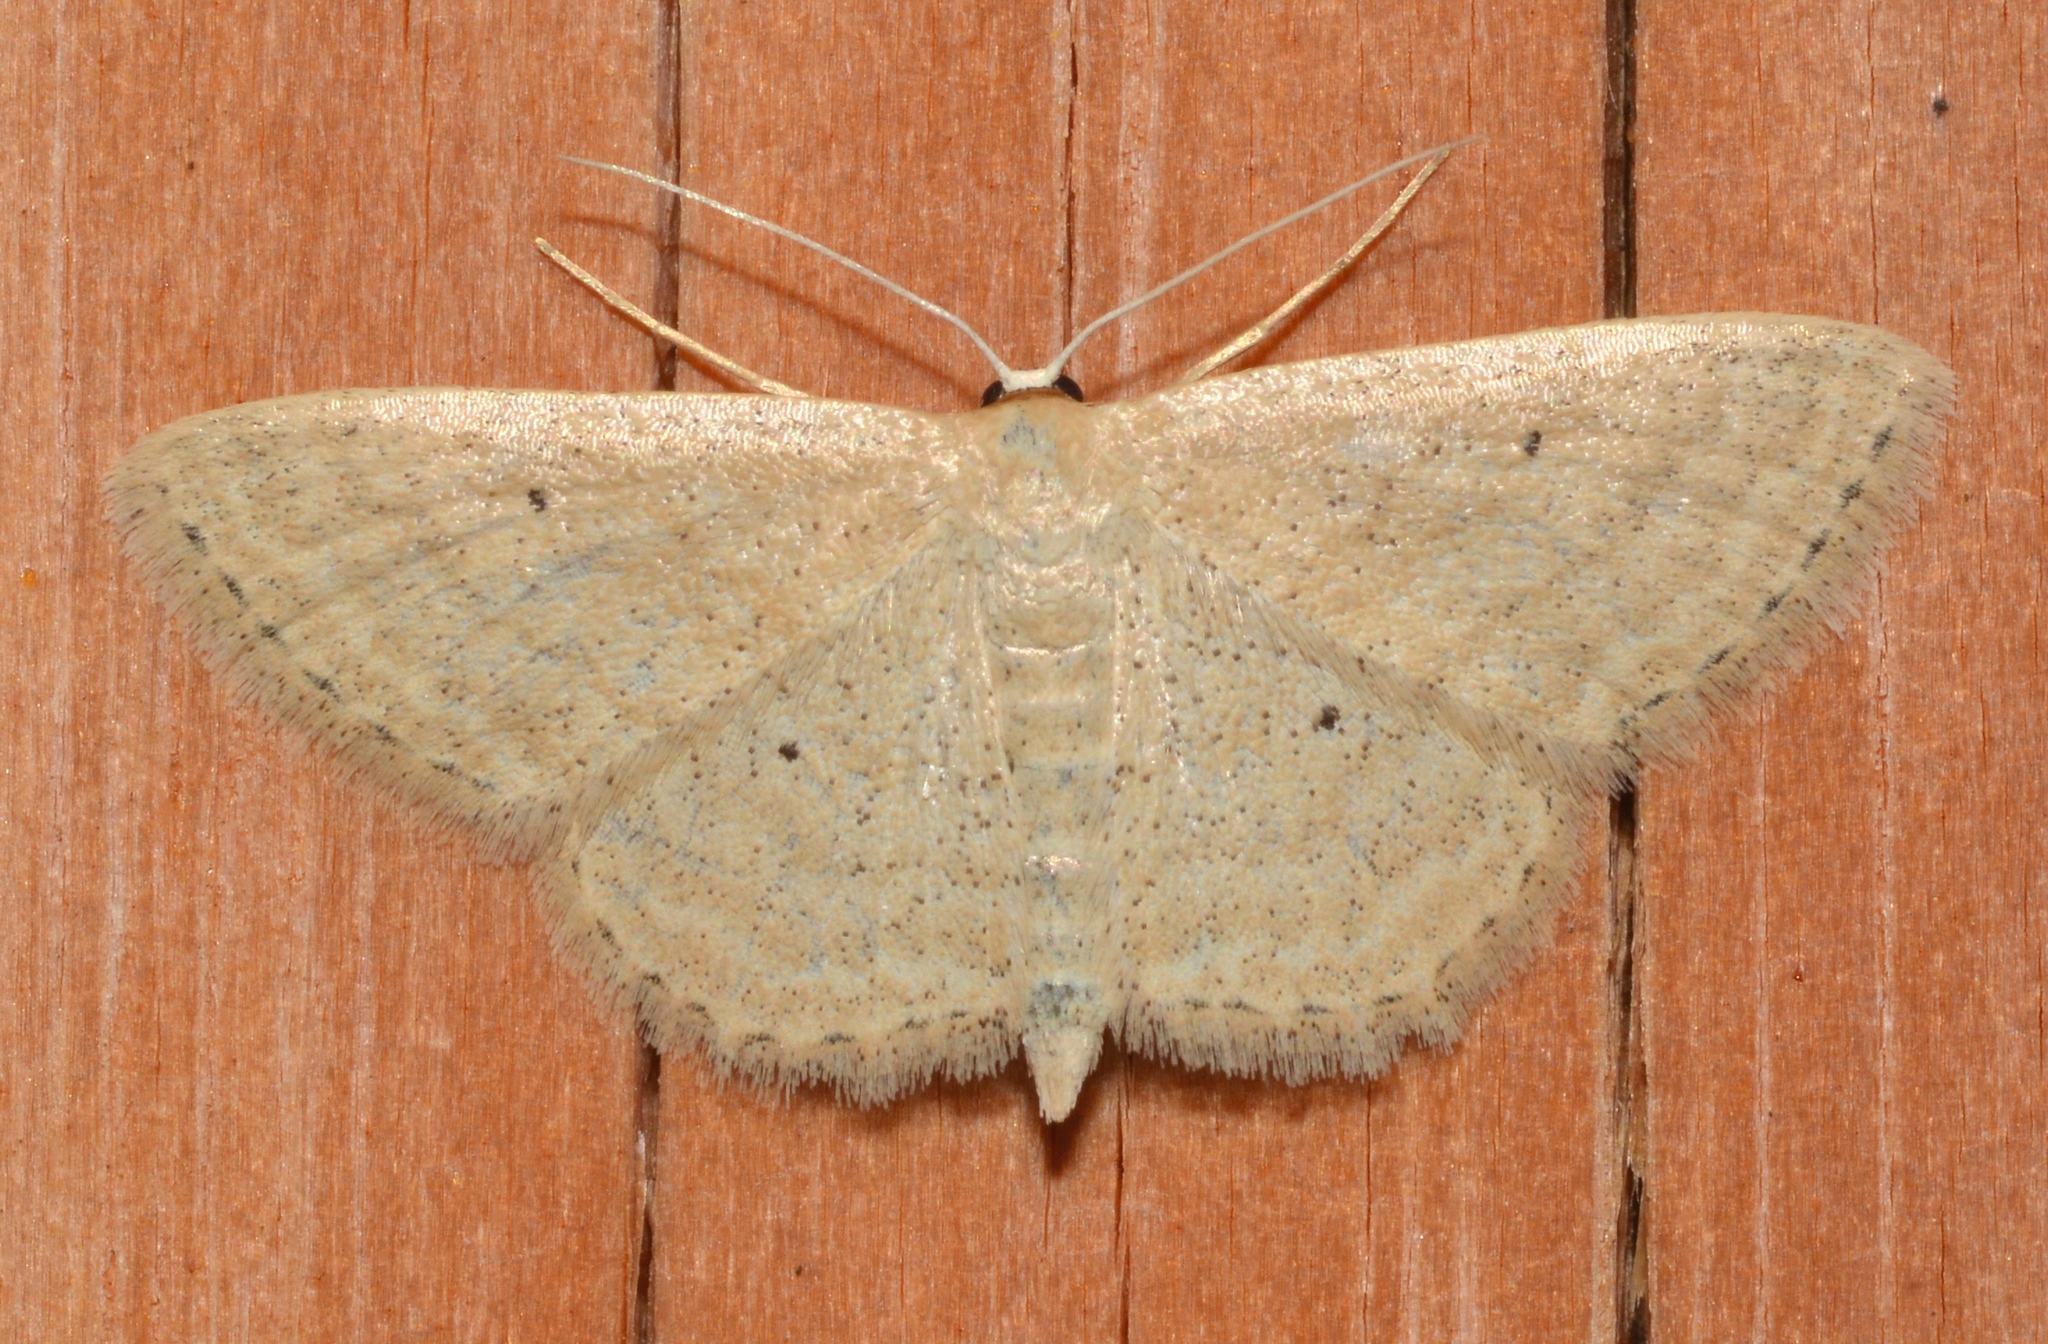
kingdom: Animalia
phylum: Arthropoda
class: Insecta
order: Lepidoptera
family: Geometridae
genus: Scopula
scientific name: Scopula inductata
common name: Soft-lined wave
